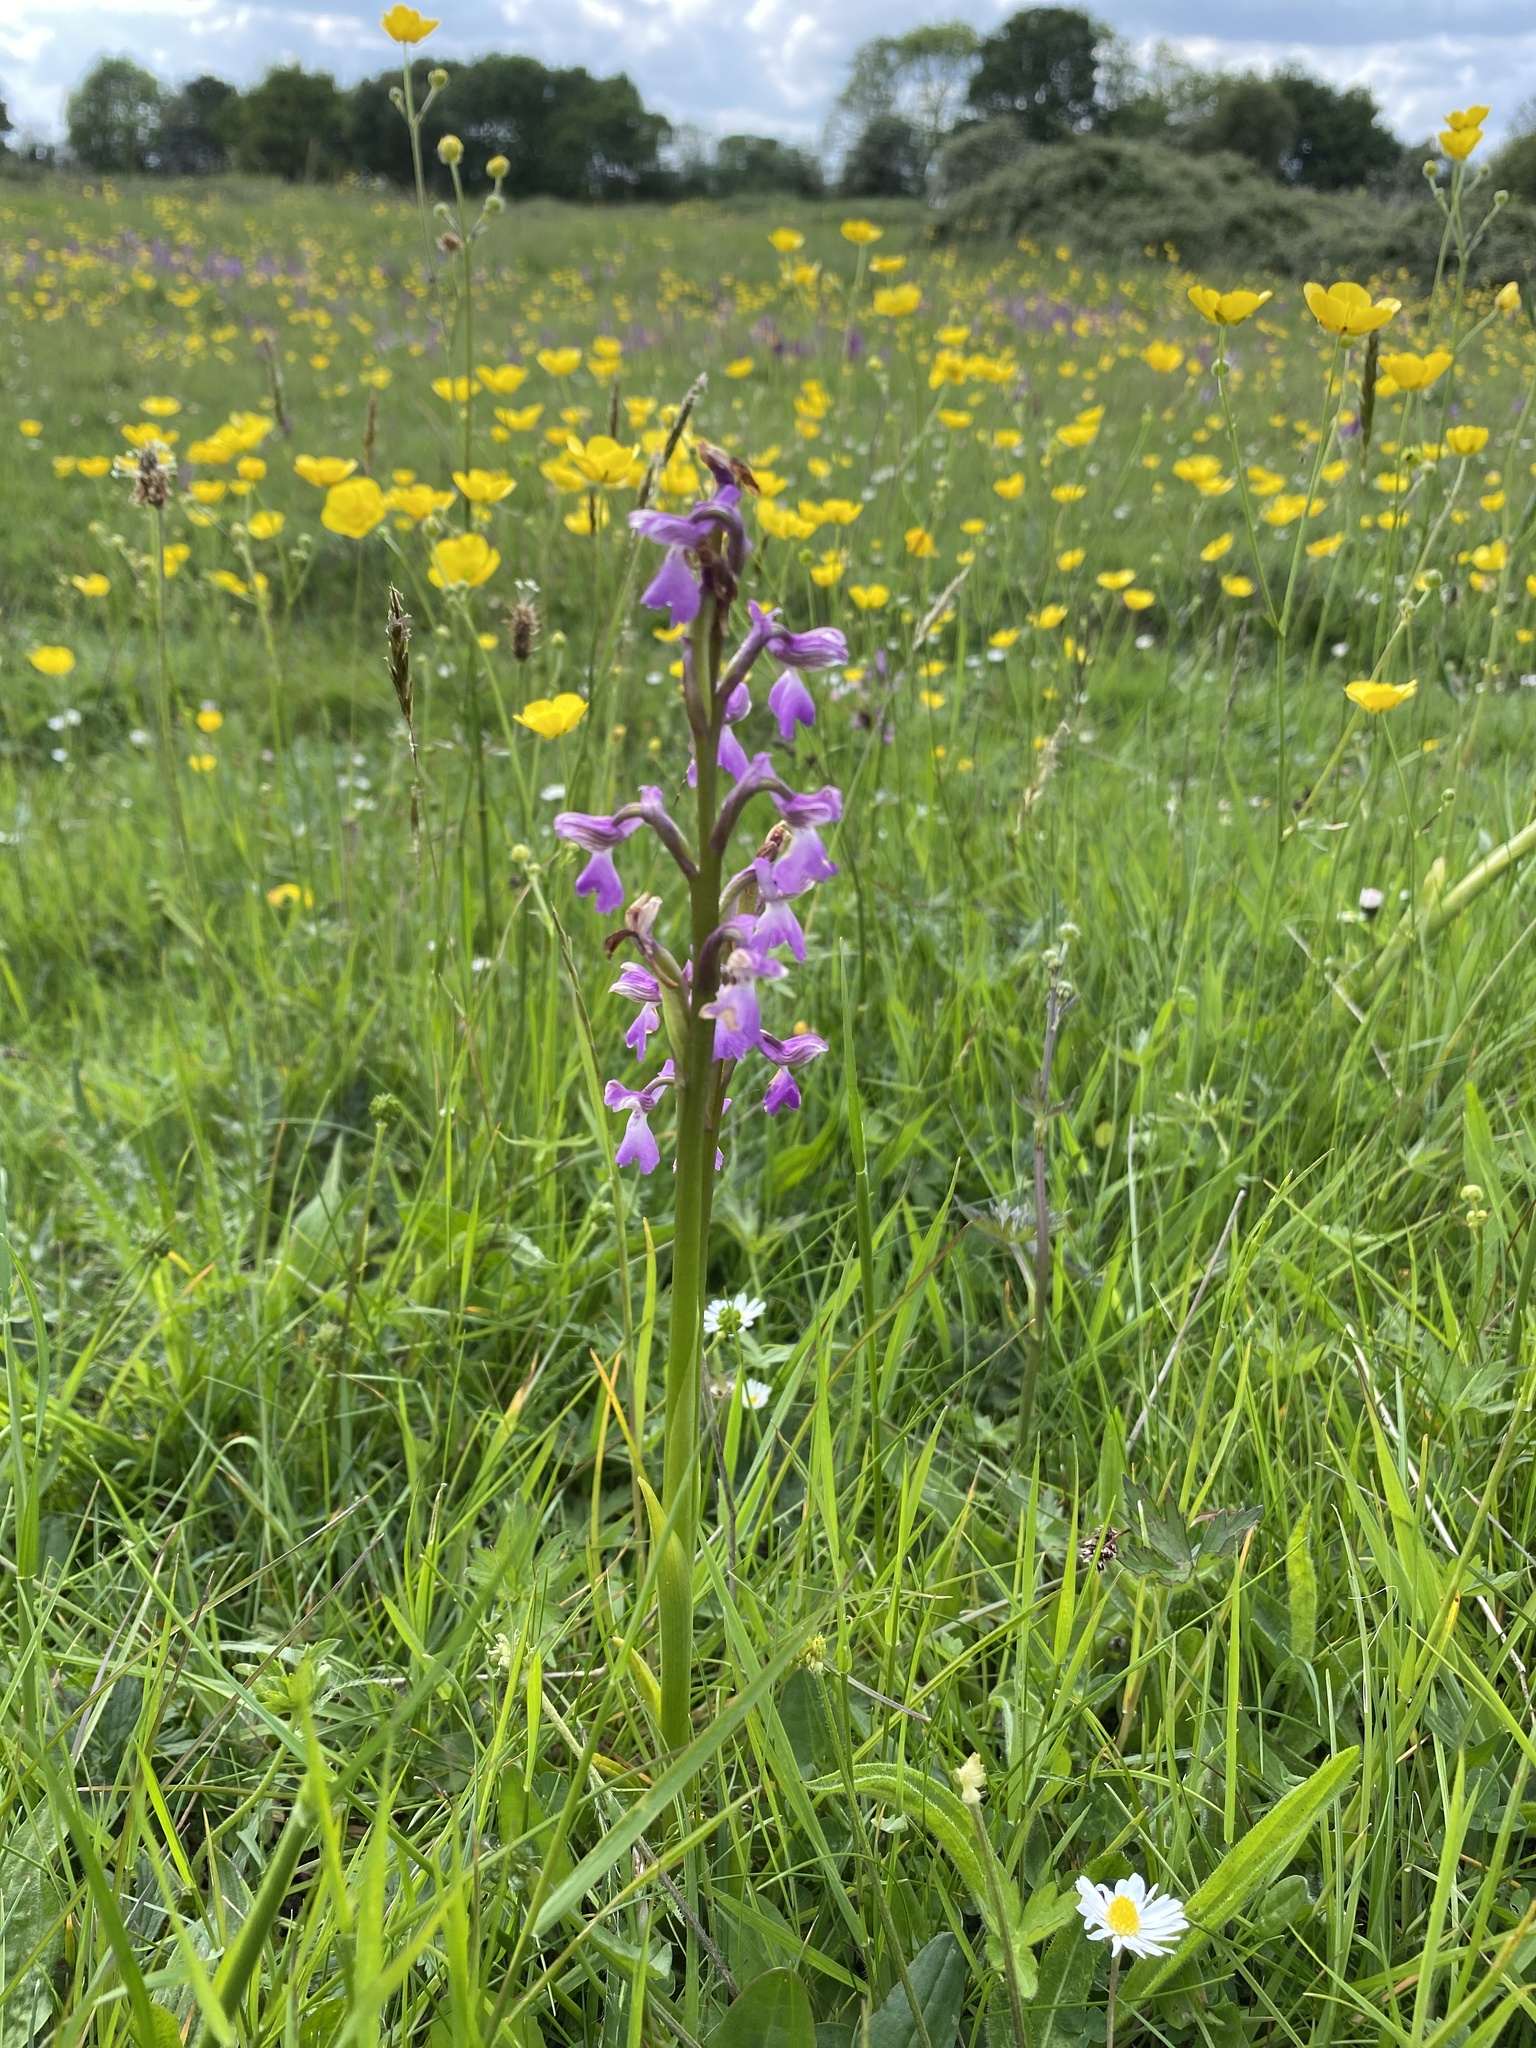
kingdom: Plantae
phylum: Tracheophyta
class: Liliopsida
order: Asparagales
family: Orchidaceae
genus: Anacamptis
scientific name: Anacamptis morio
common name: Green-winged orchid
